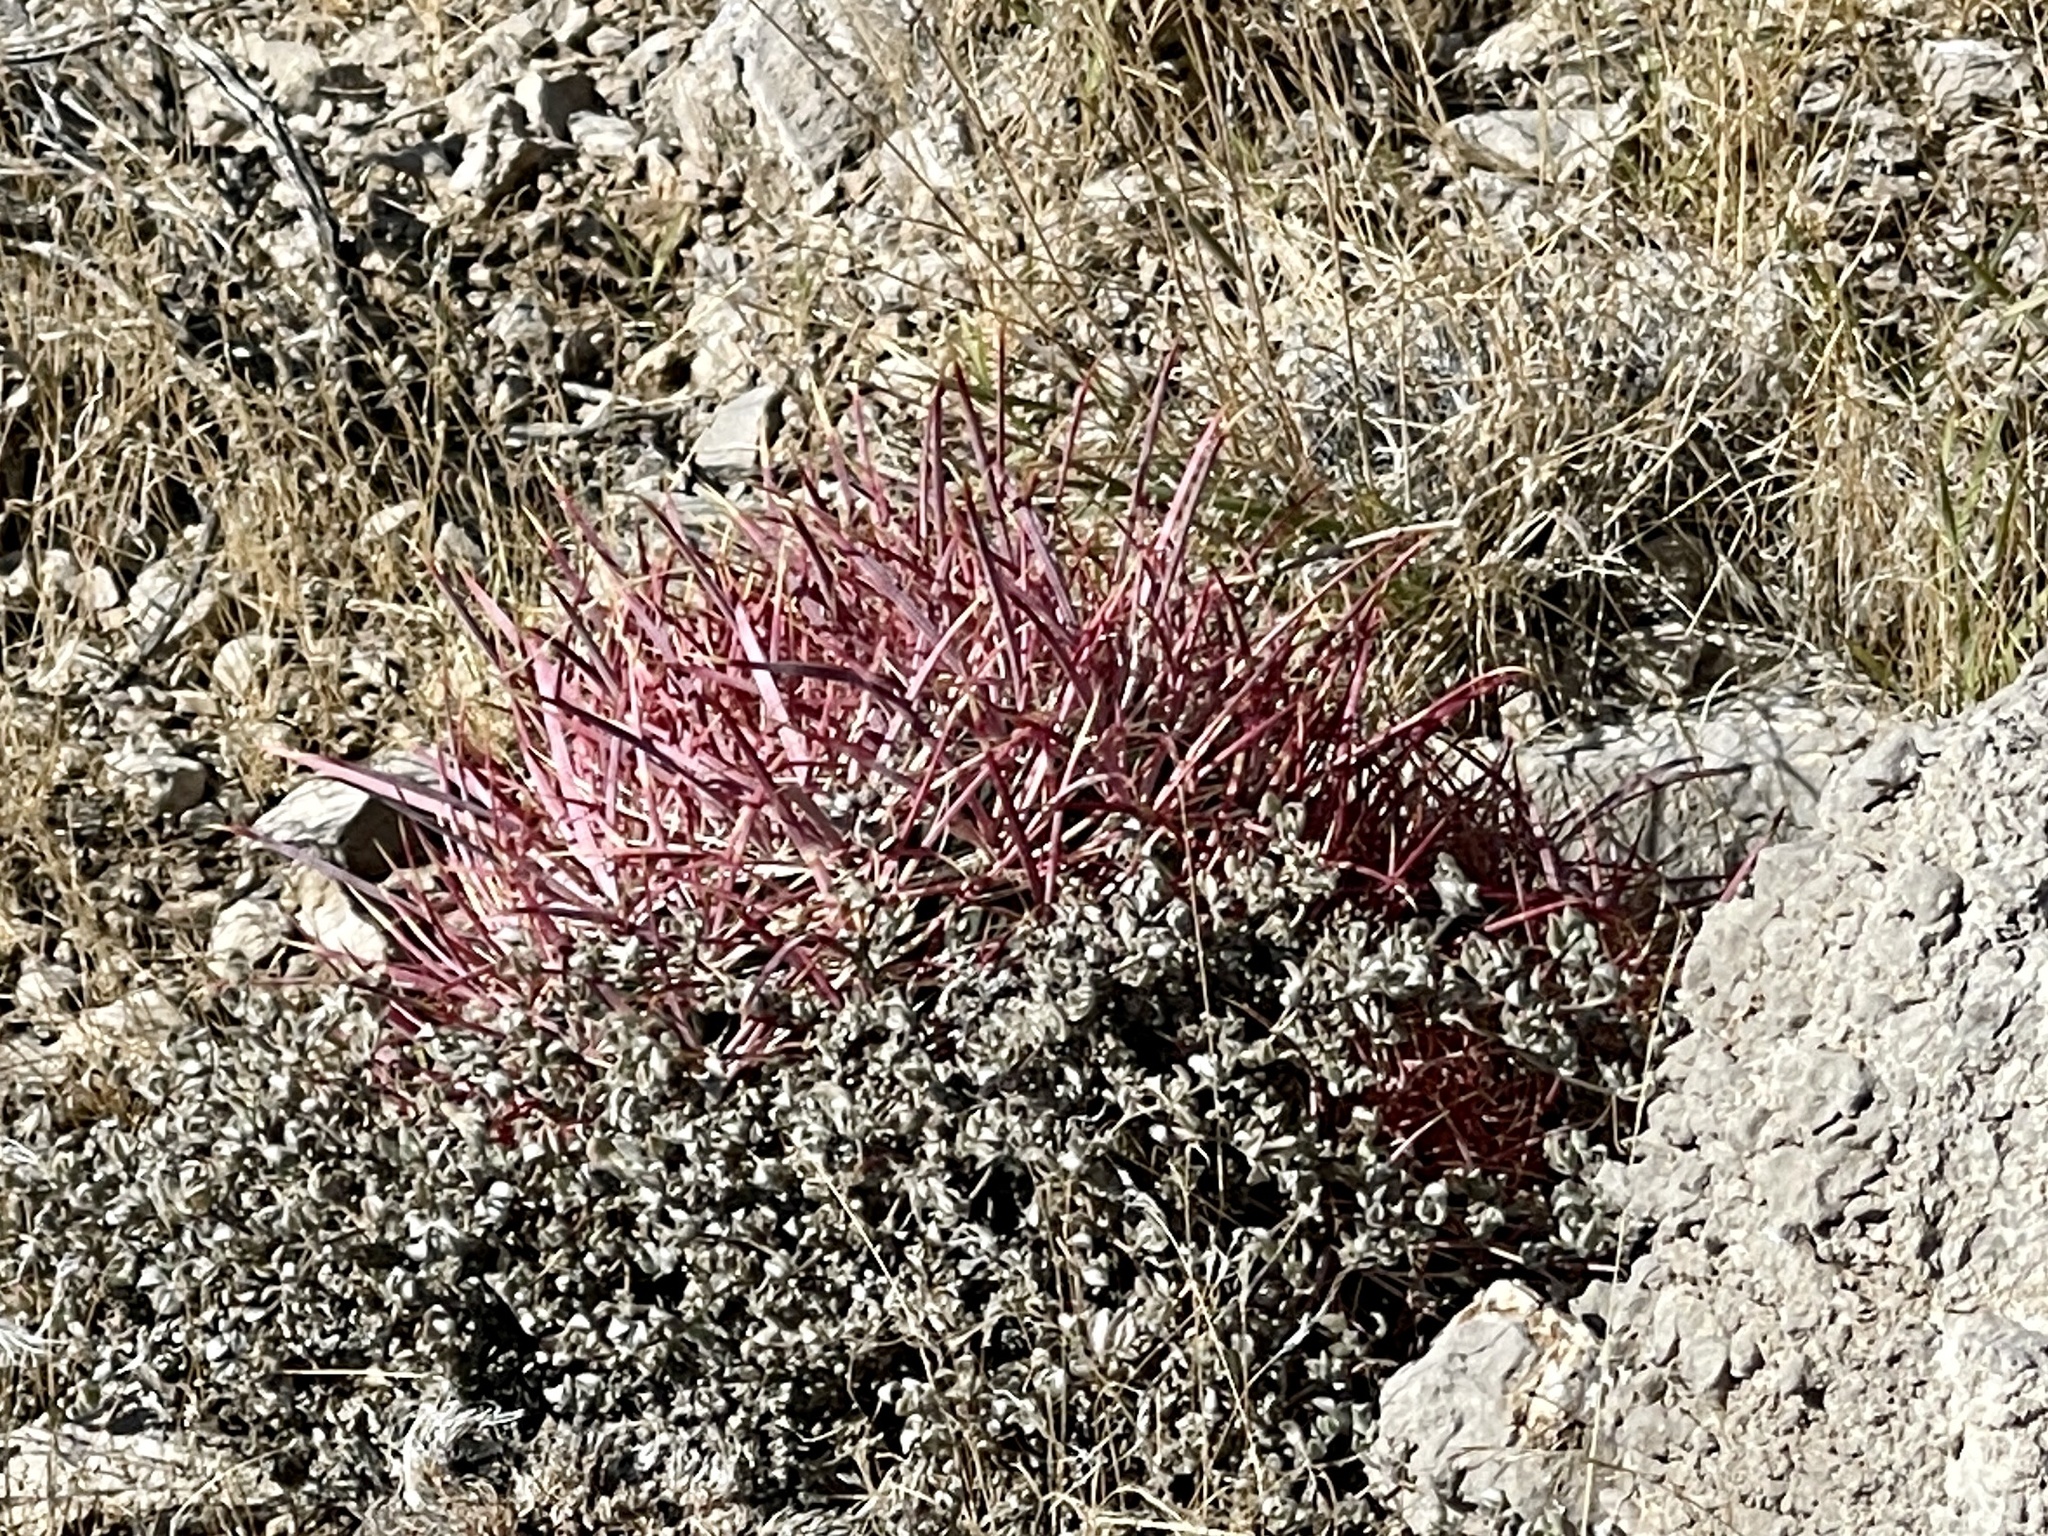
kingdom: Plantae
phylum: Tracheophyta
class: Magnoliopsida
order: Caryophyllales
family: Cactaceae
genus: Ferocactus
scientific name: Ferocactus cylindraceus
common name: California barrel cactus
